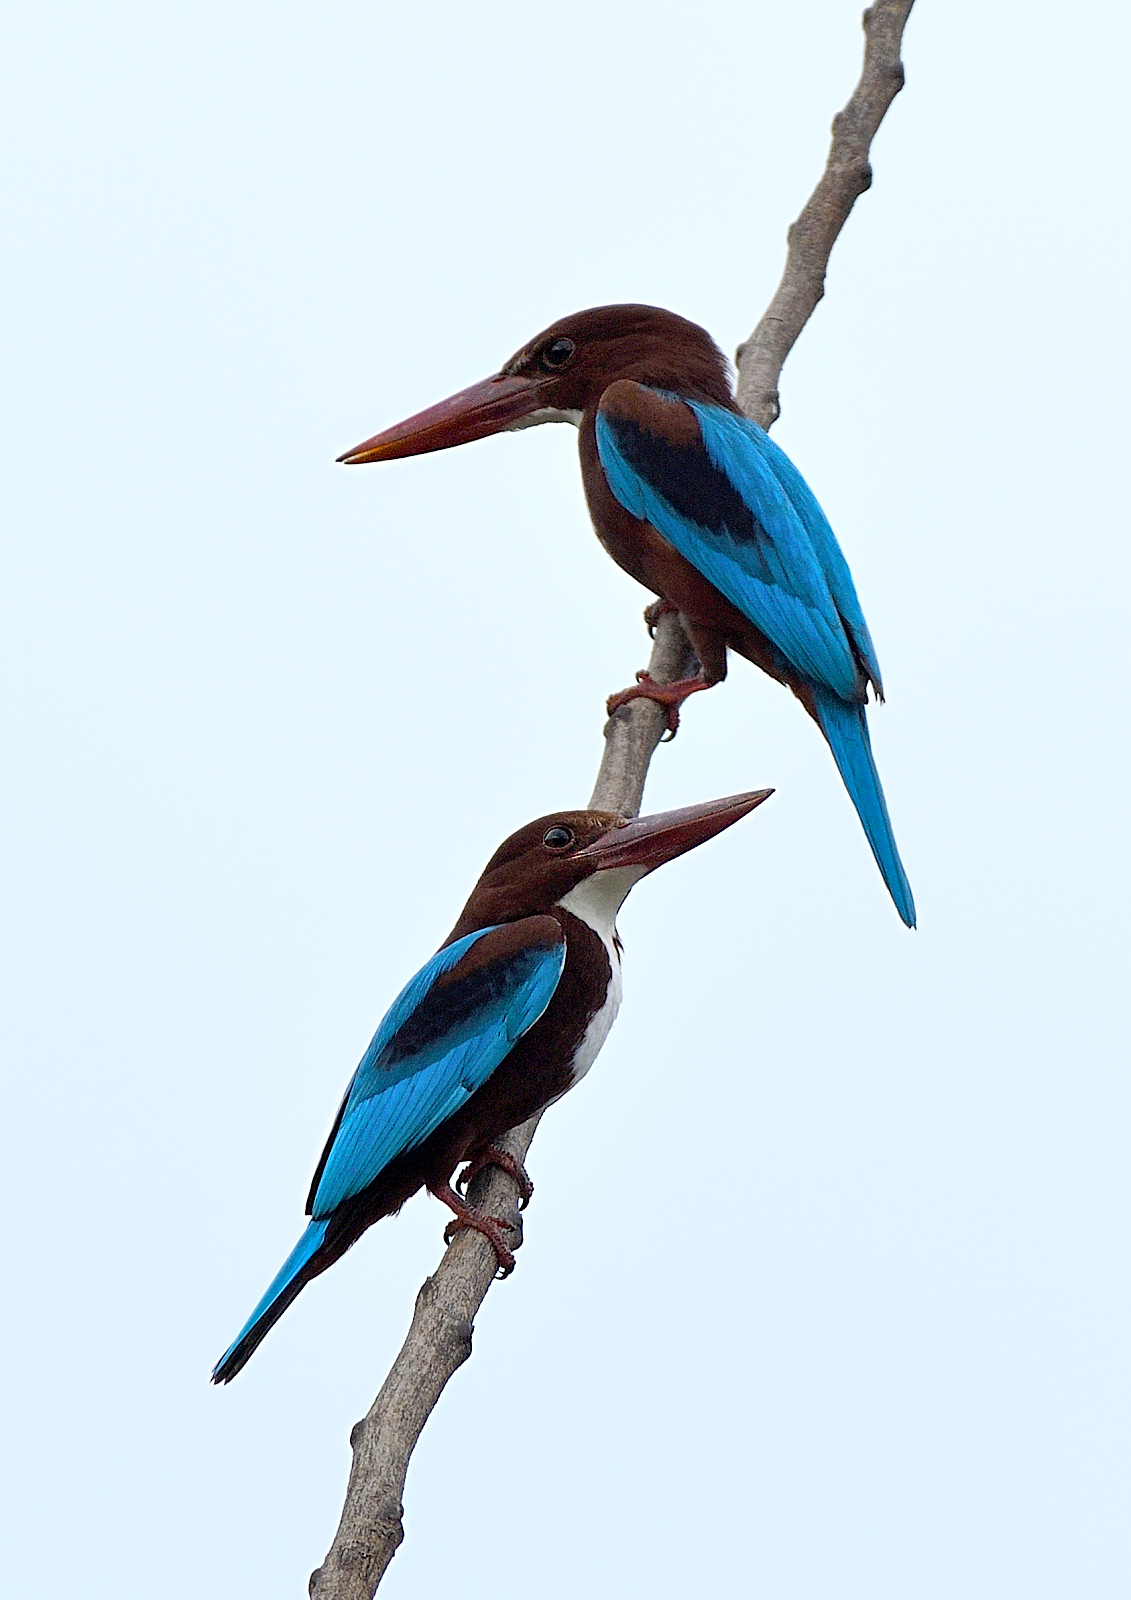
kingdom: Animalia
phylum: Chordata
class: Aves
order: Coraciiformes
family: Alcedinidae
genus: Halcyon
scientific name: Halcyon smyrnensis
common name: White-throated kingfisher
